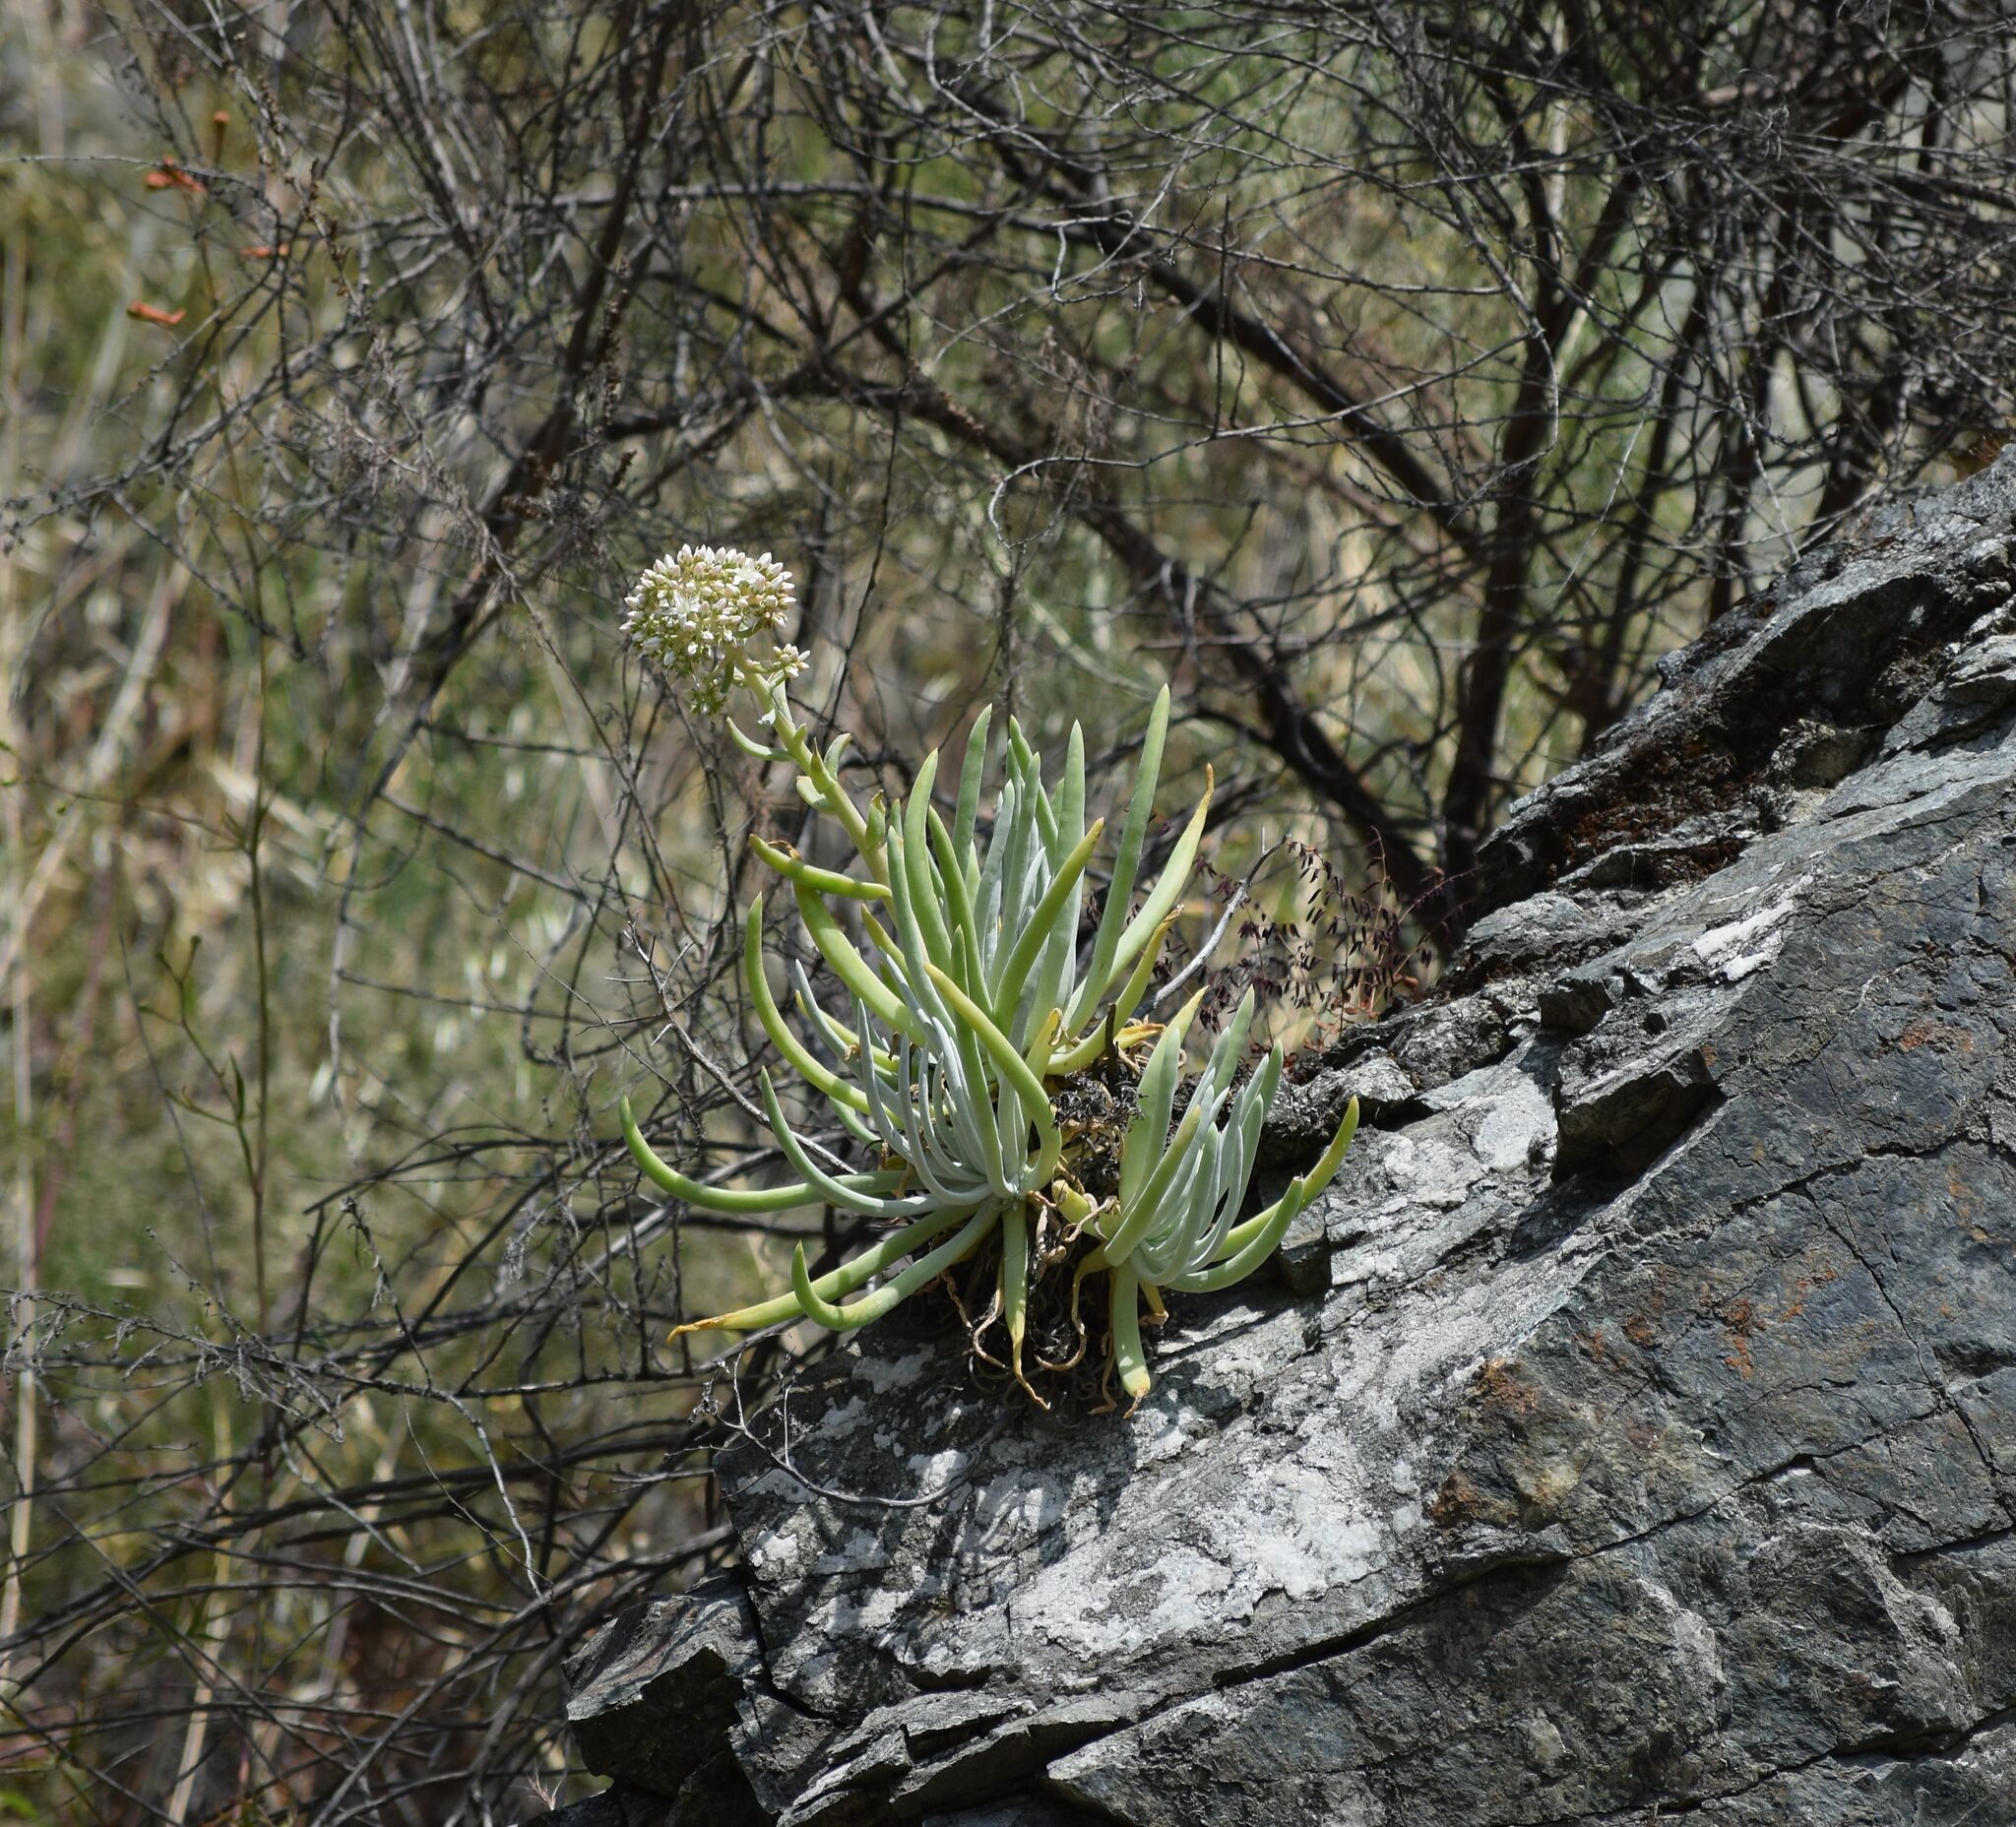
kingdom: Plantae
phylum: Tracheophyta
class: Magnoliopsida
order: Saxifragales
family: Crassulaceae
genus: Dudleya
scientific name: Dudleya densiflora
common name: San gabriel mountains dudleya
